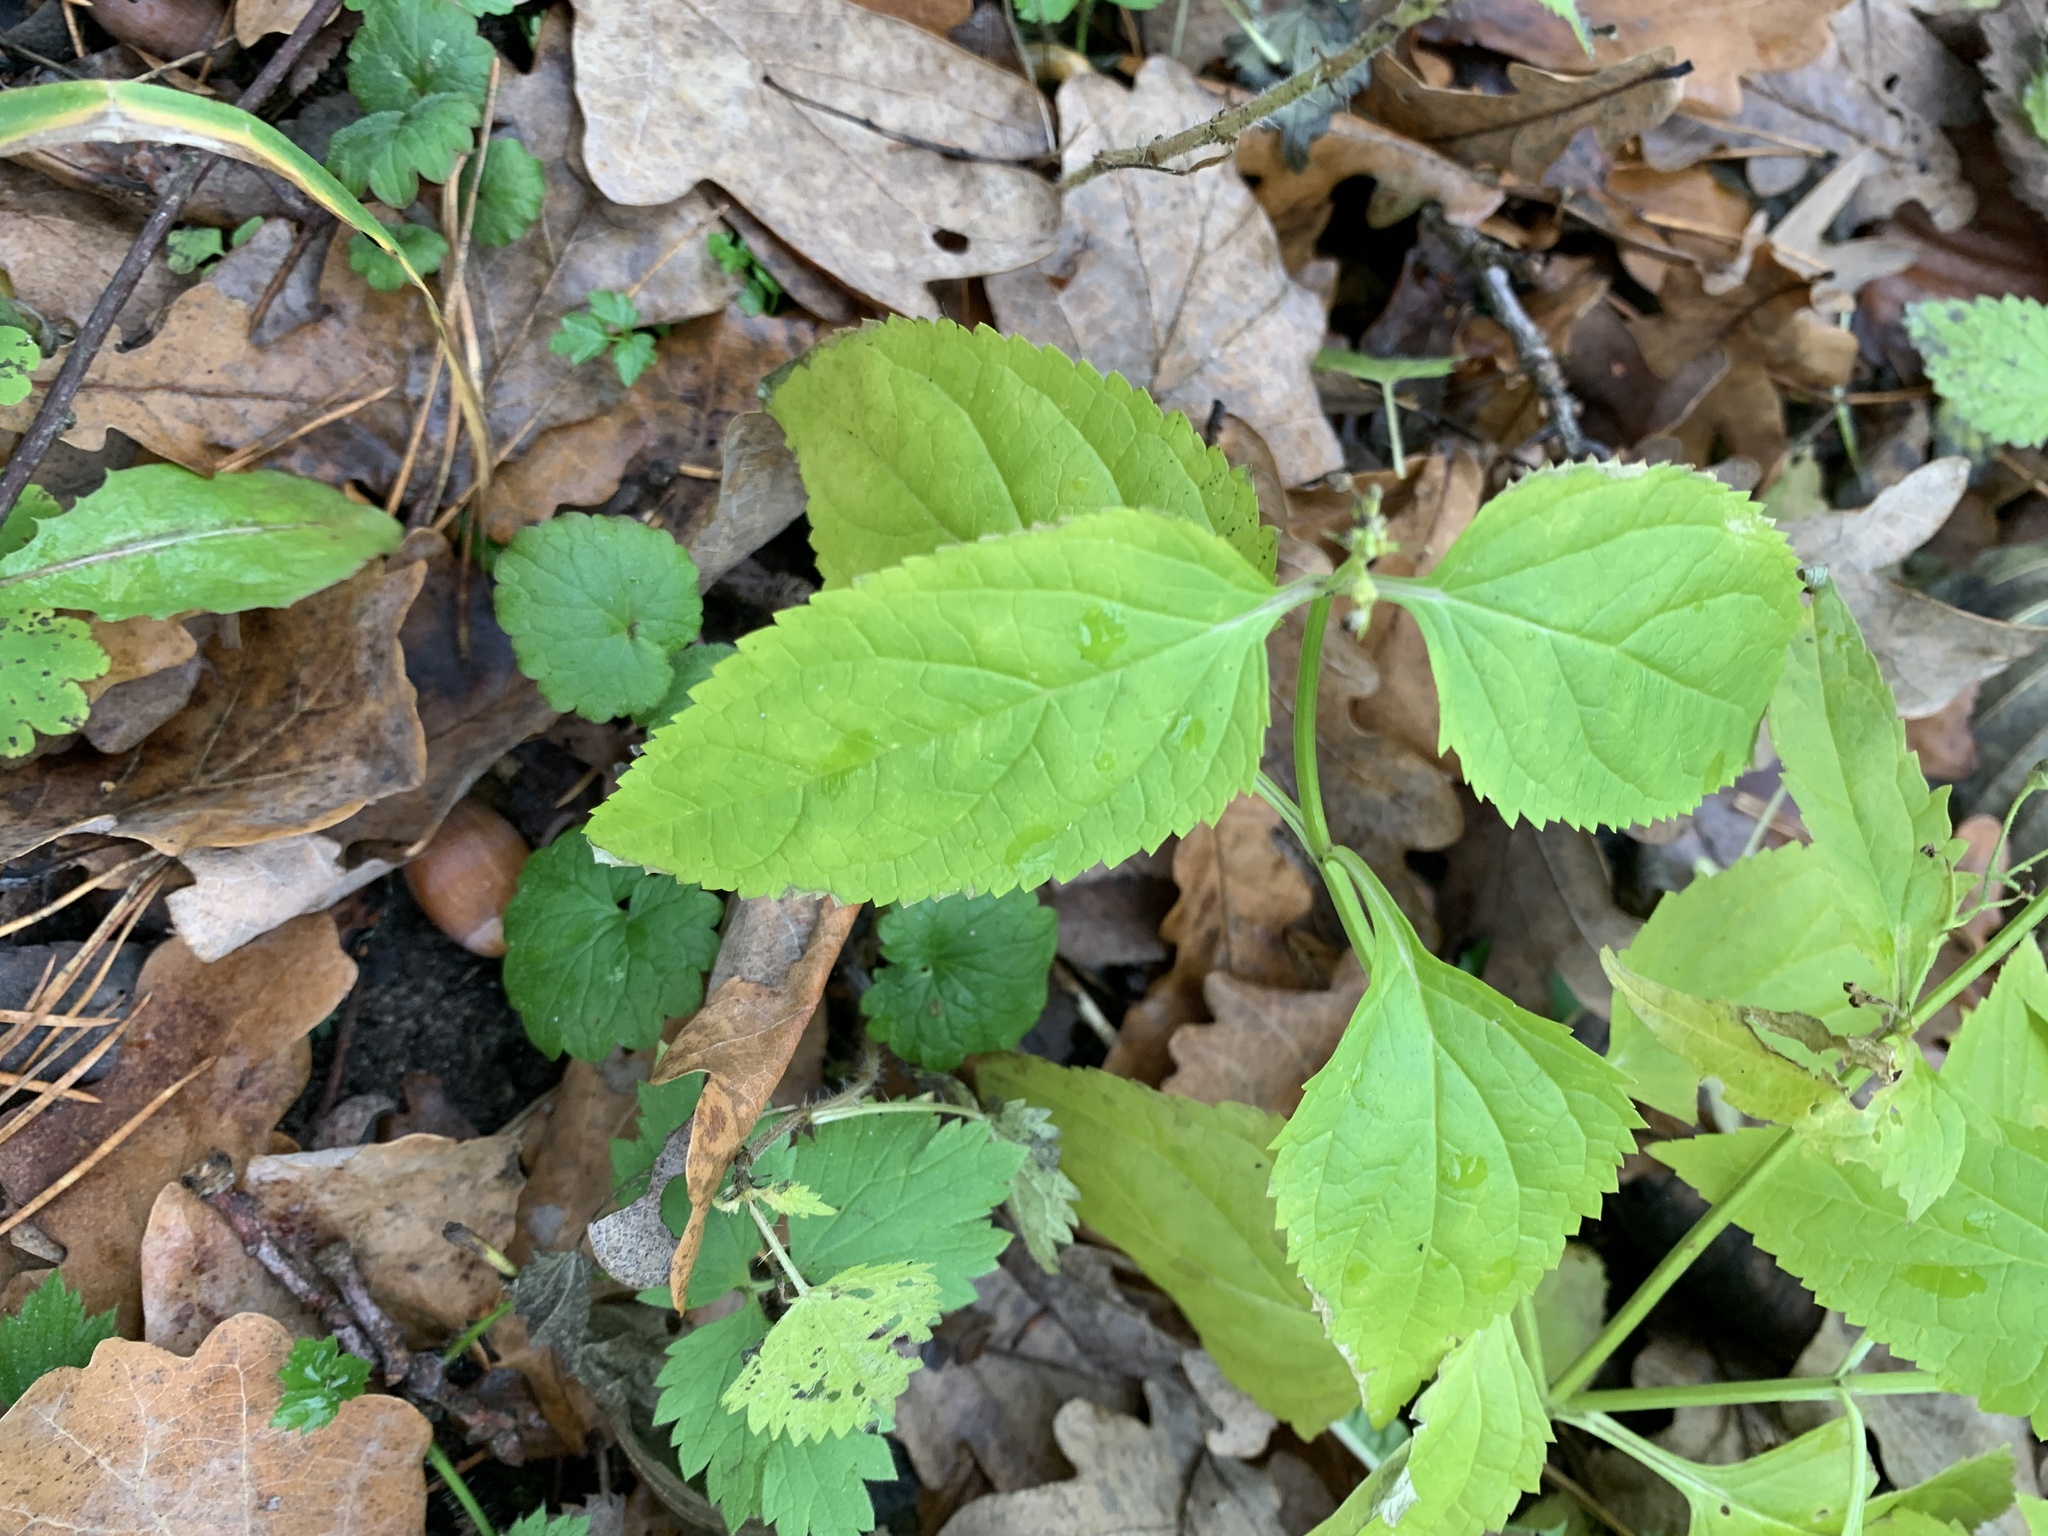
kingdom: Plantae
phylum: Tracheophyta
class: Magnoliopsida
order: Lamiales
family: Scrophulariaceae
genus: Scrophularia
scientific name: Scrophularia nodosa
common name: Common figwort
